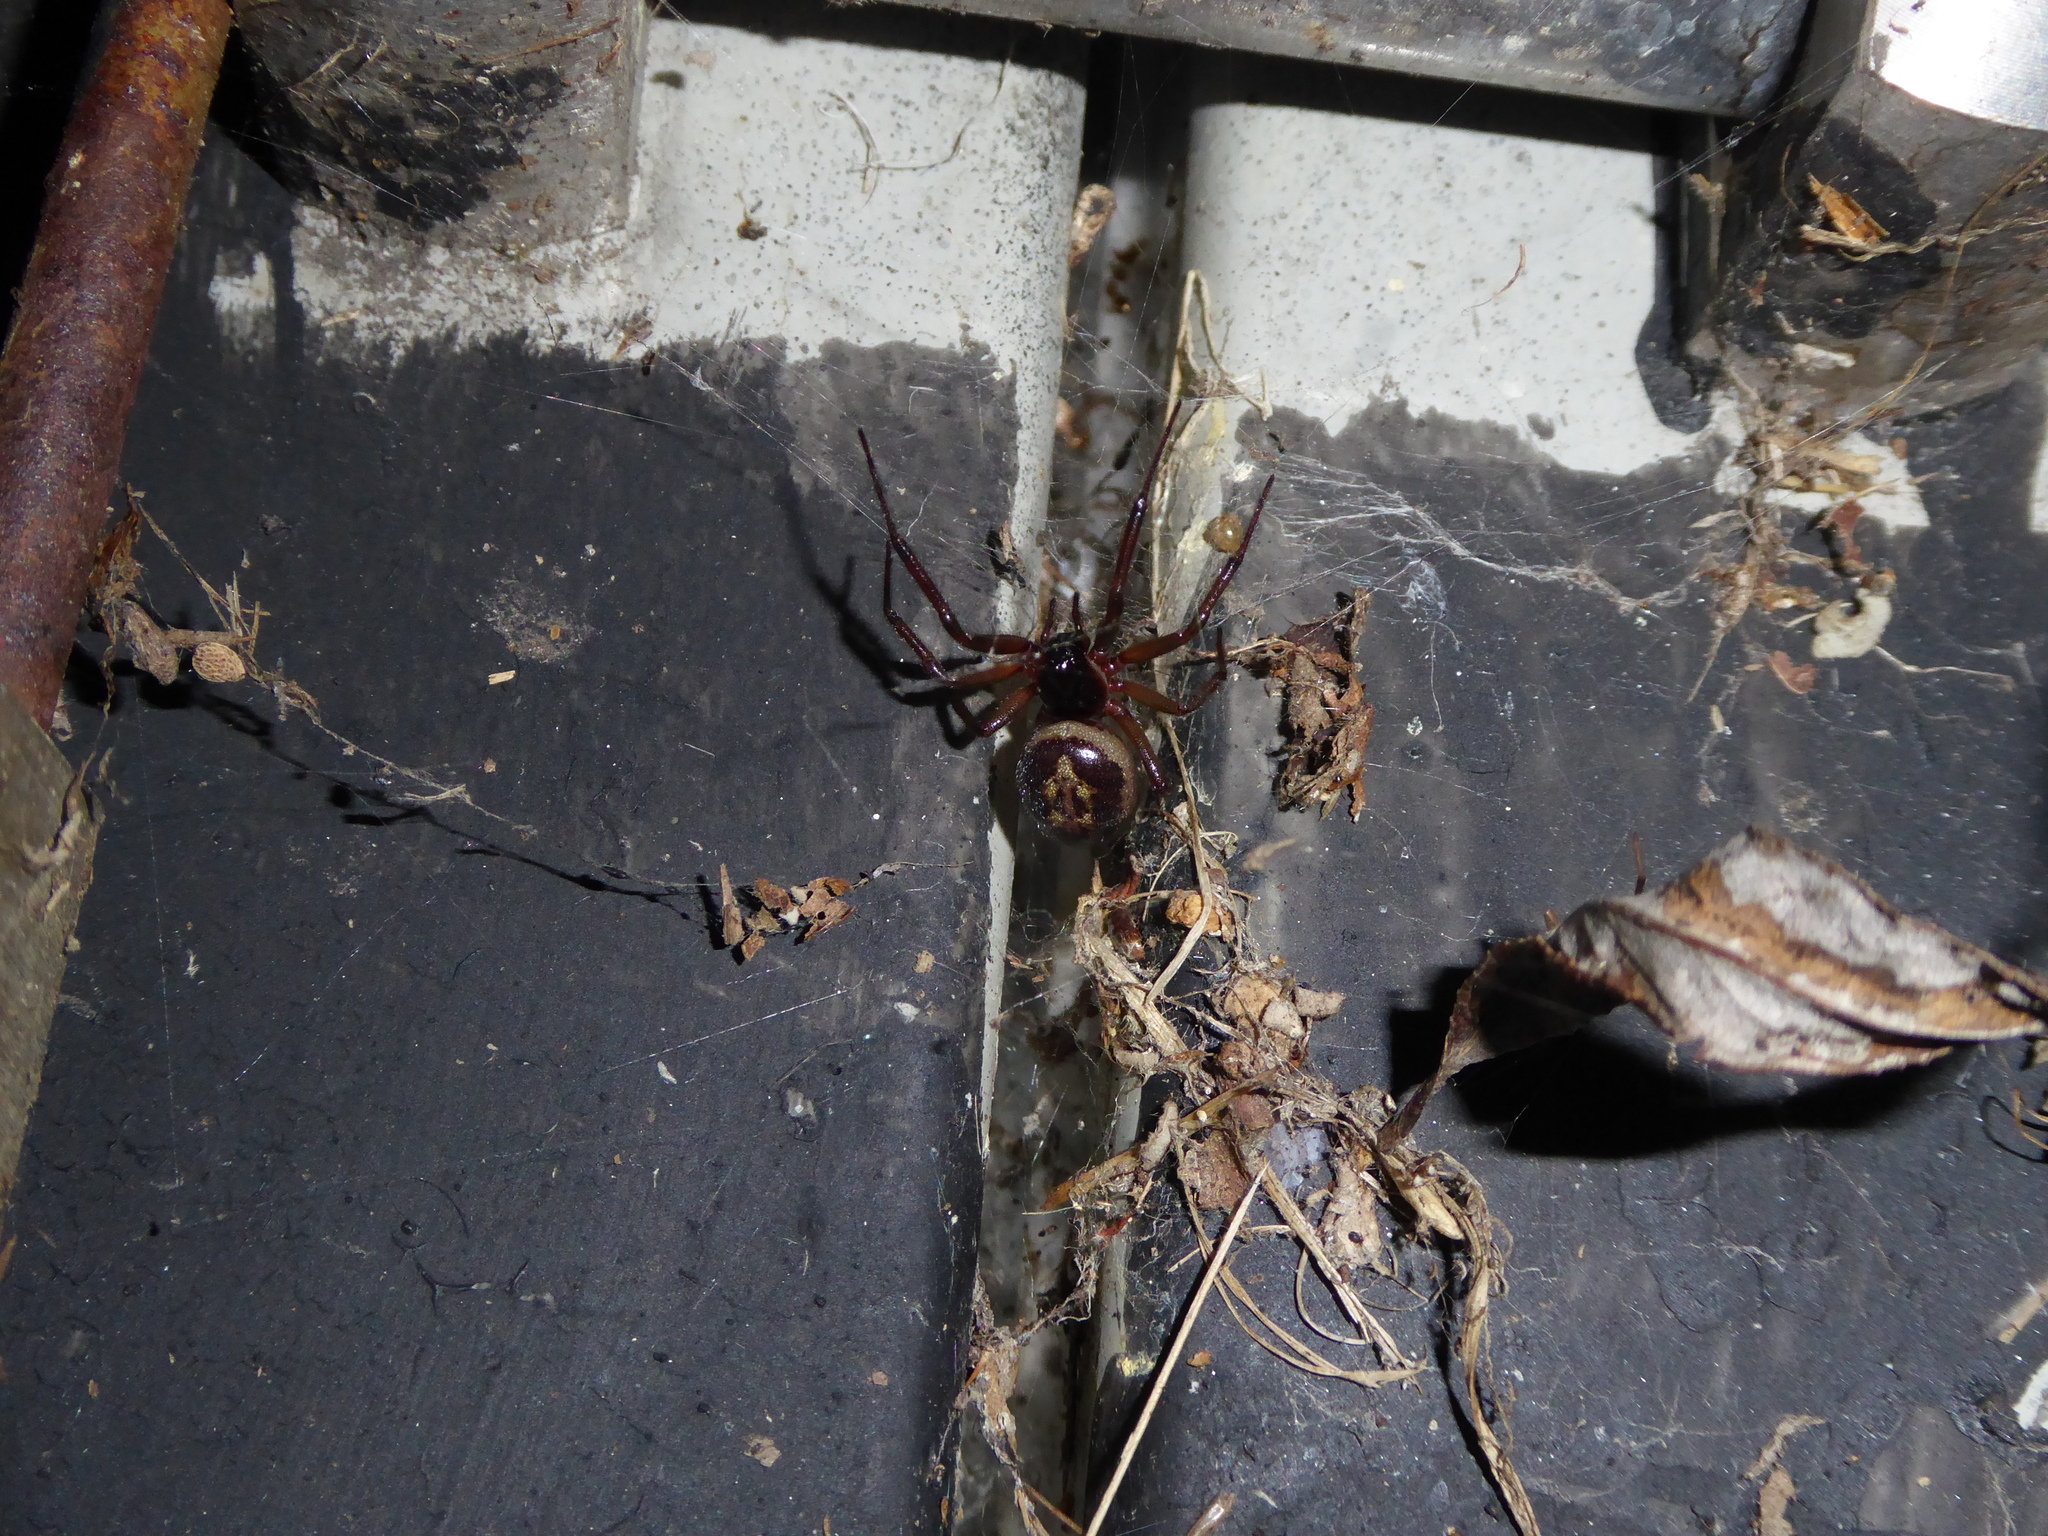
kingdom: Animalia
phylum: Arthropoda
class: Arachnida
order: Araneae
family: Theridiidae
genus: Steatoda
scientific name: Steatoda nobilis
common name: Cobweb weaver
